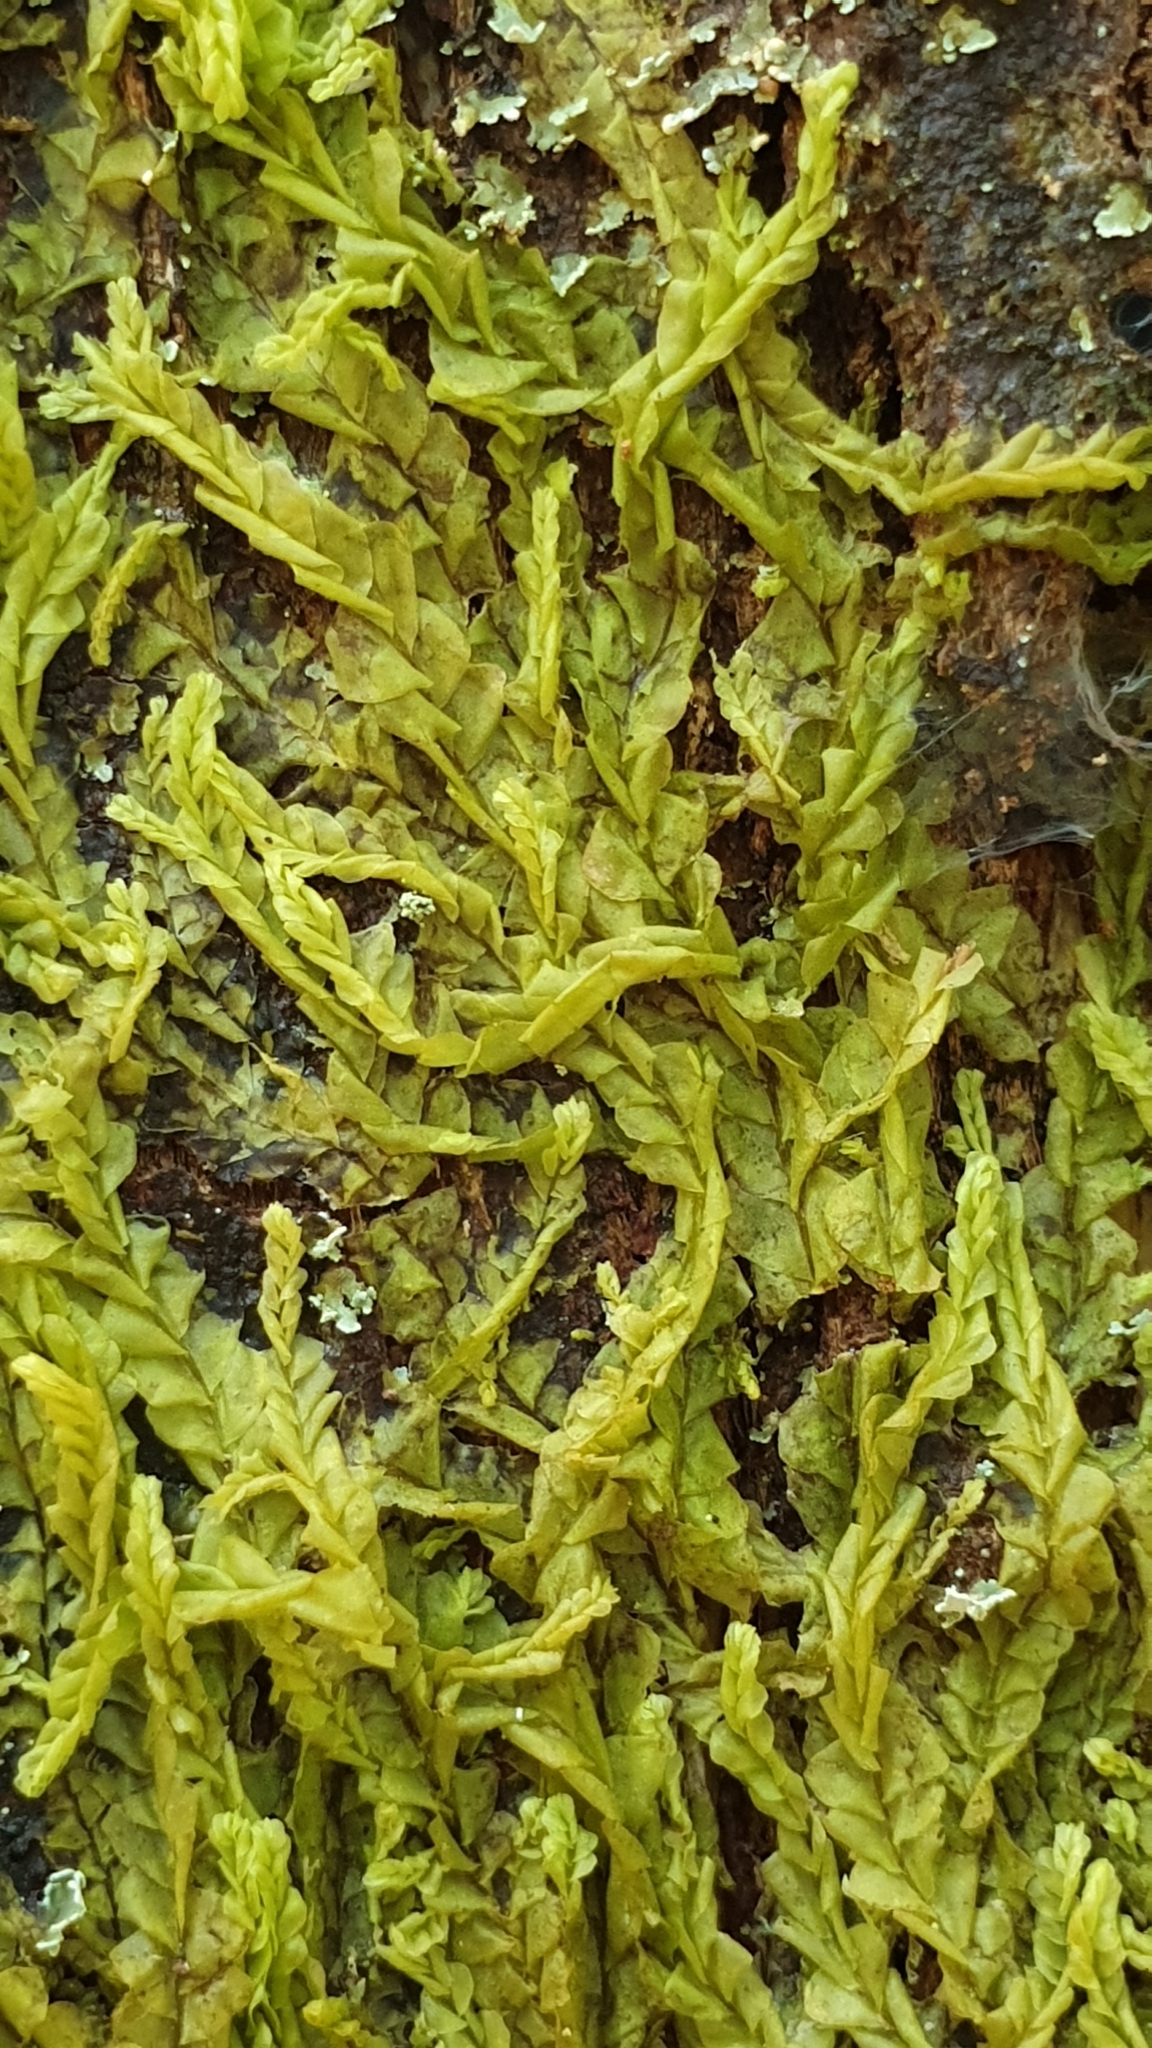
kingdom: Plantae
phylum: Marchantiophyta
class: Jungermanniopsida
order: Jungermanniales
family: Lophocoleaceae
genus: Lophocolea
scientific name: Lophocolea semiteres
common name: Southern crestwort
